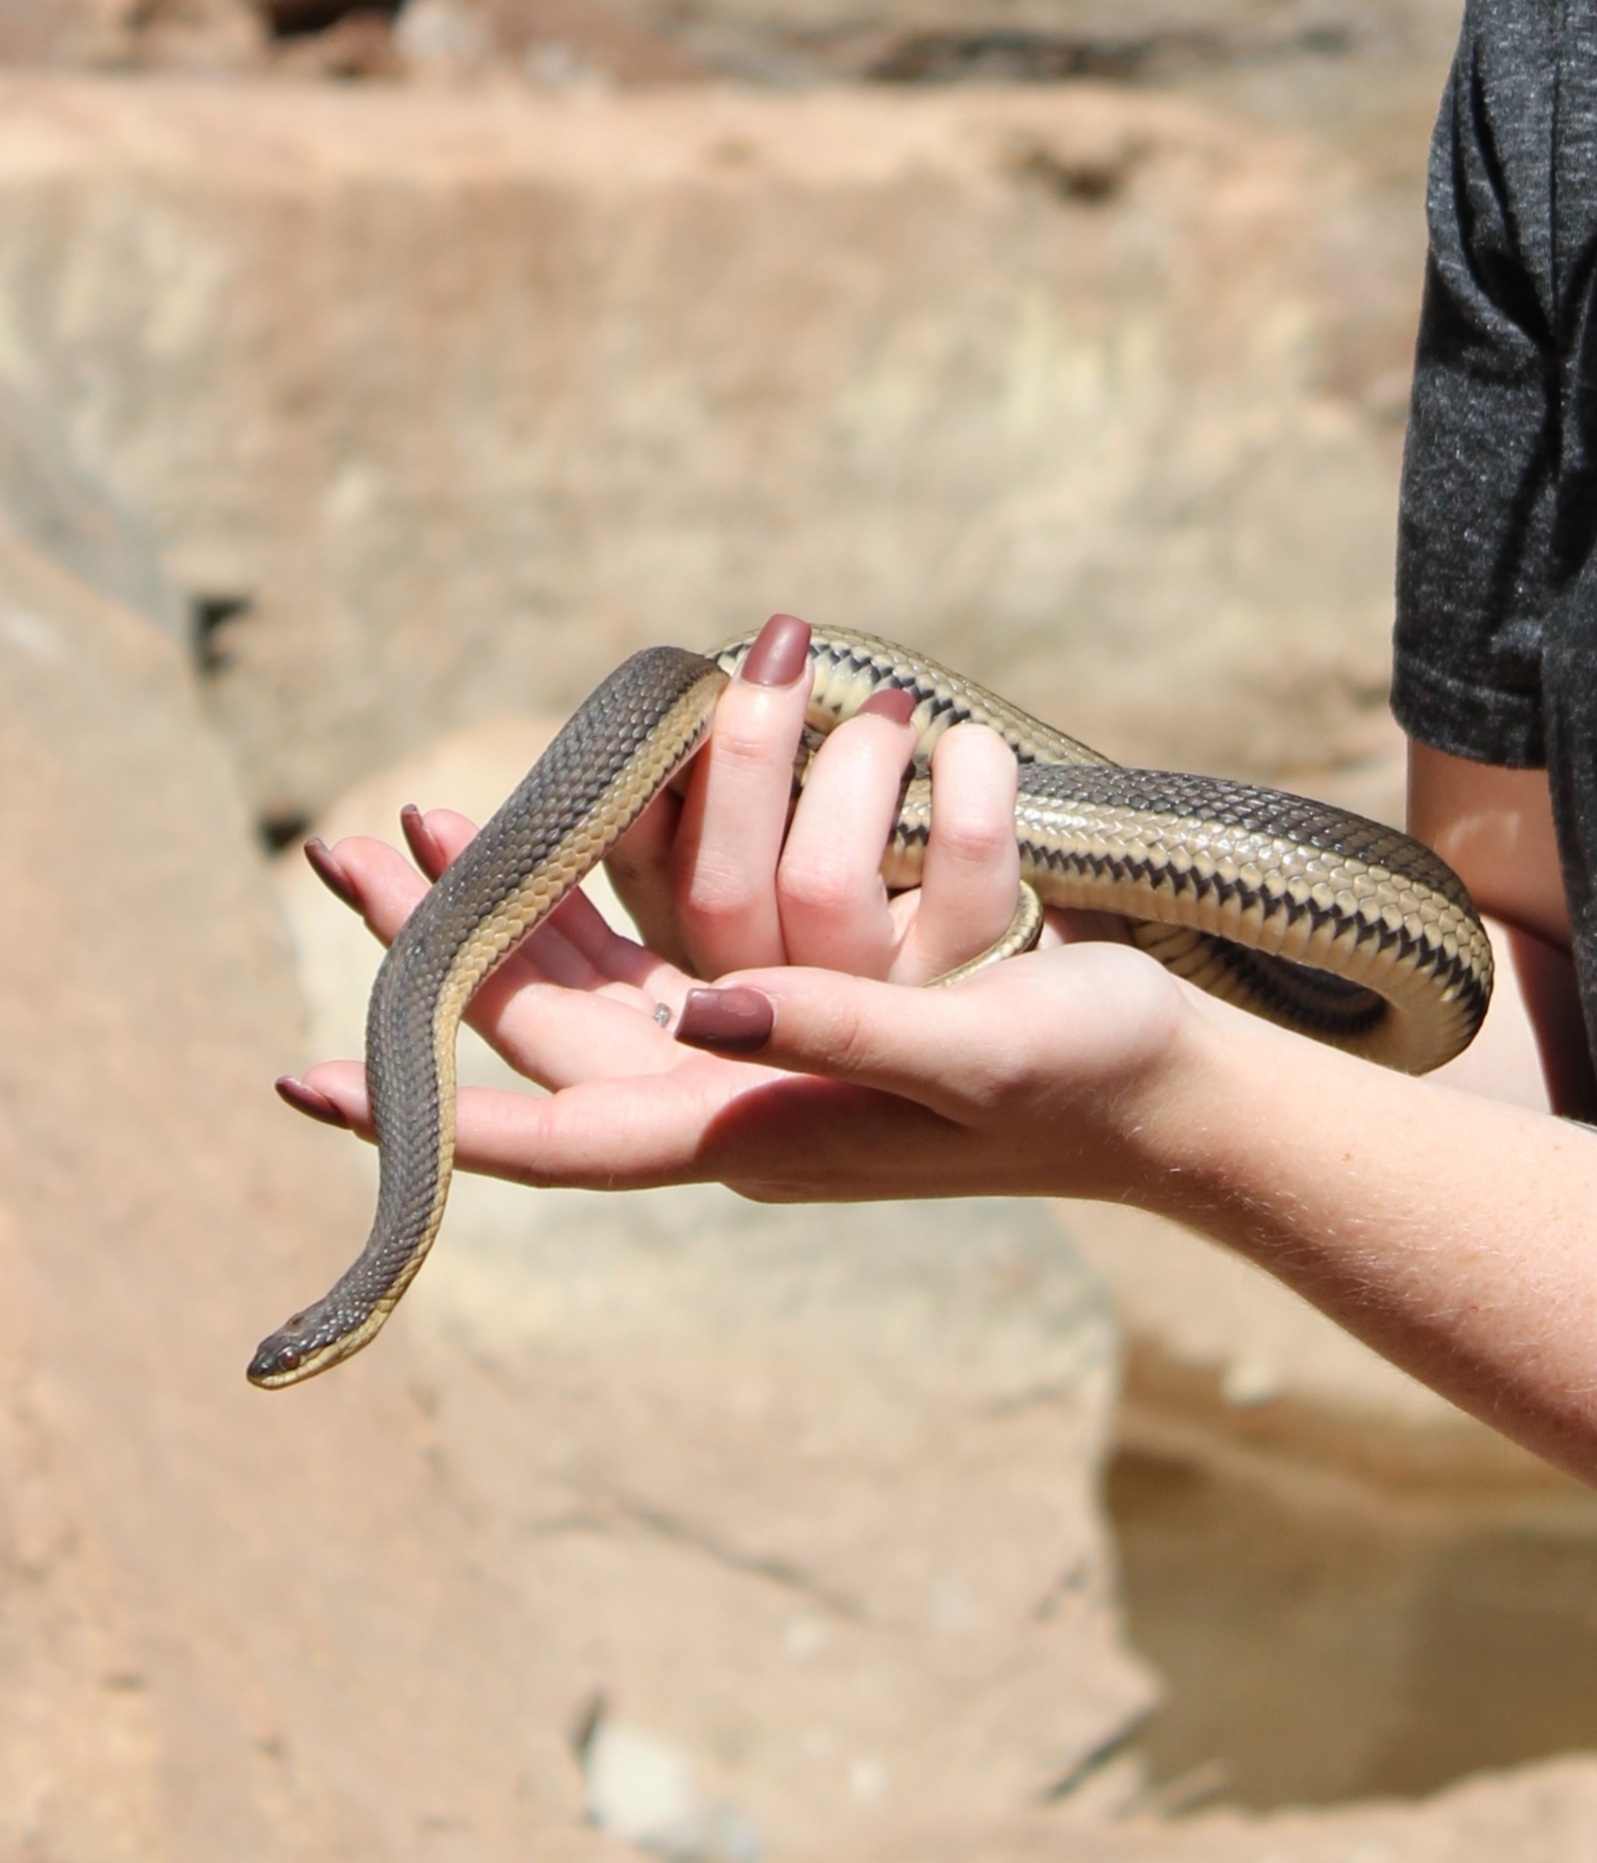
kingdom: Animalia
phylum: Chordata
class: Squamata
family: Colubridae
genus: Regina
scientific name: Regina grahamii
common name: Graham's crayfish snake
